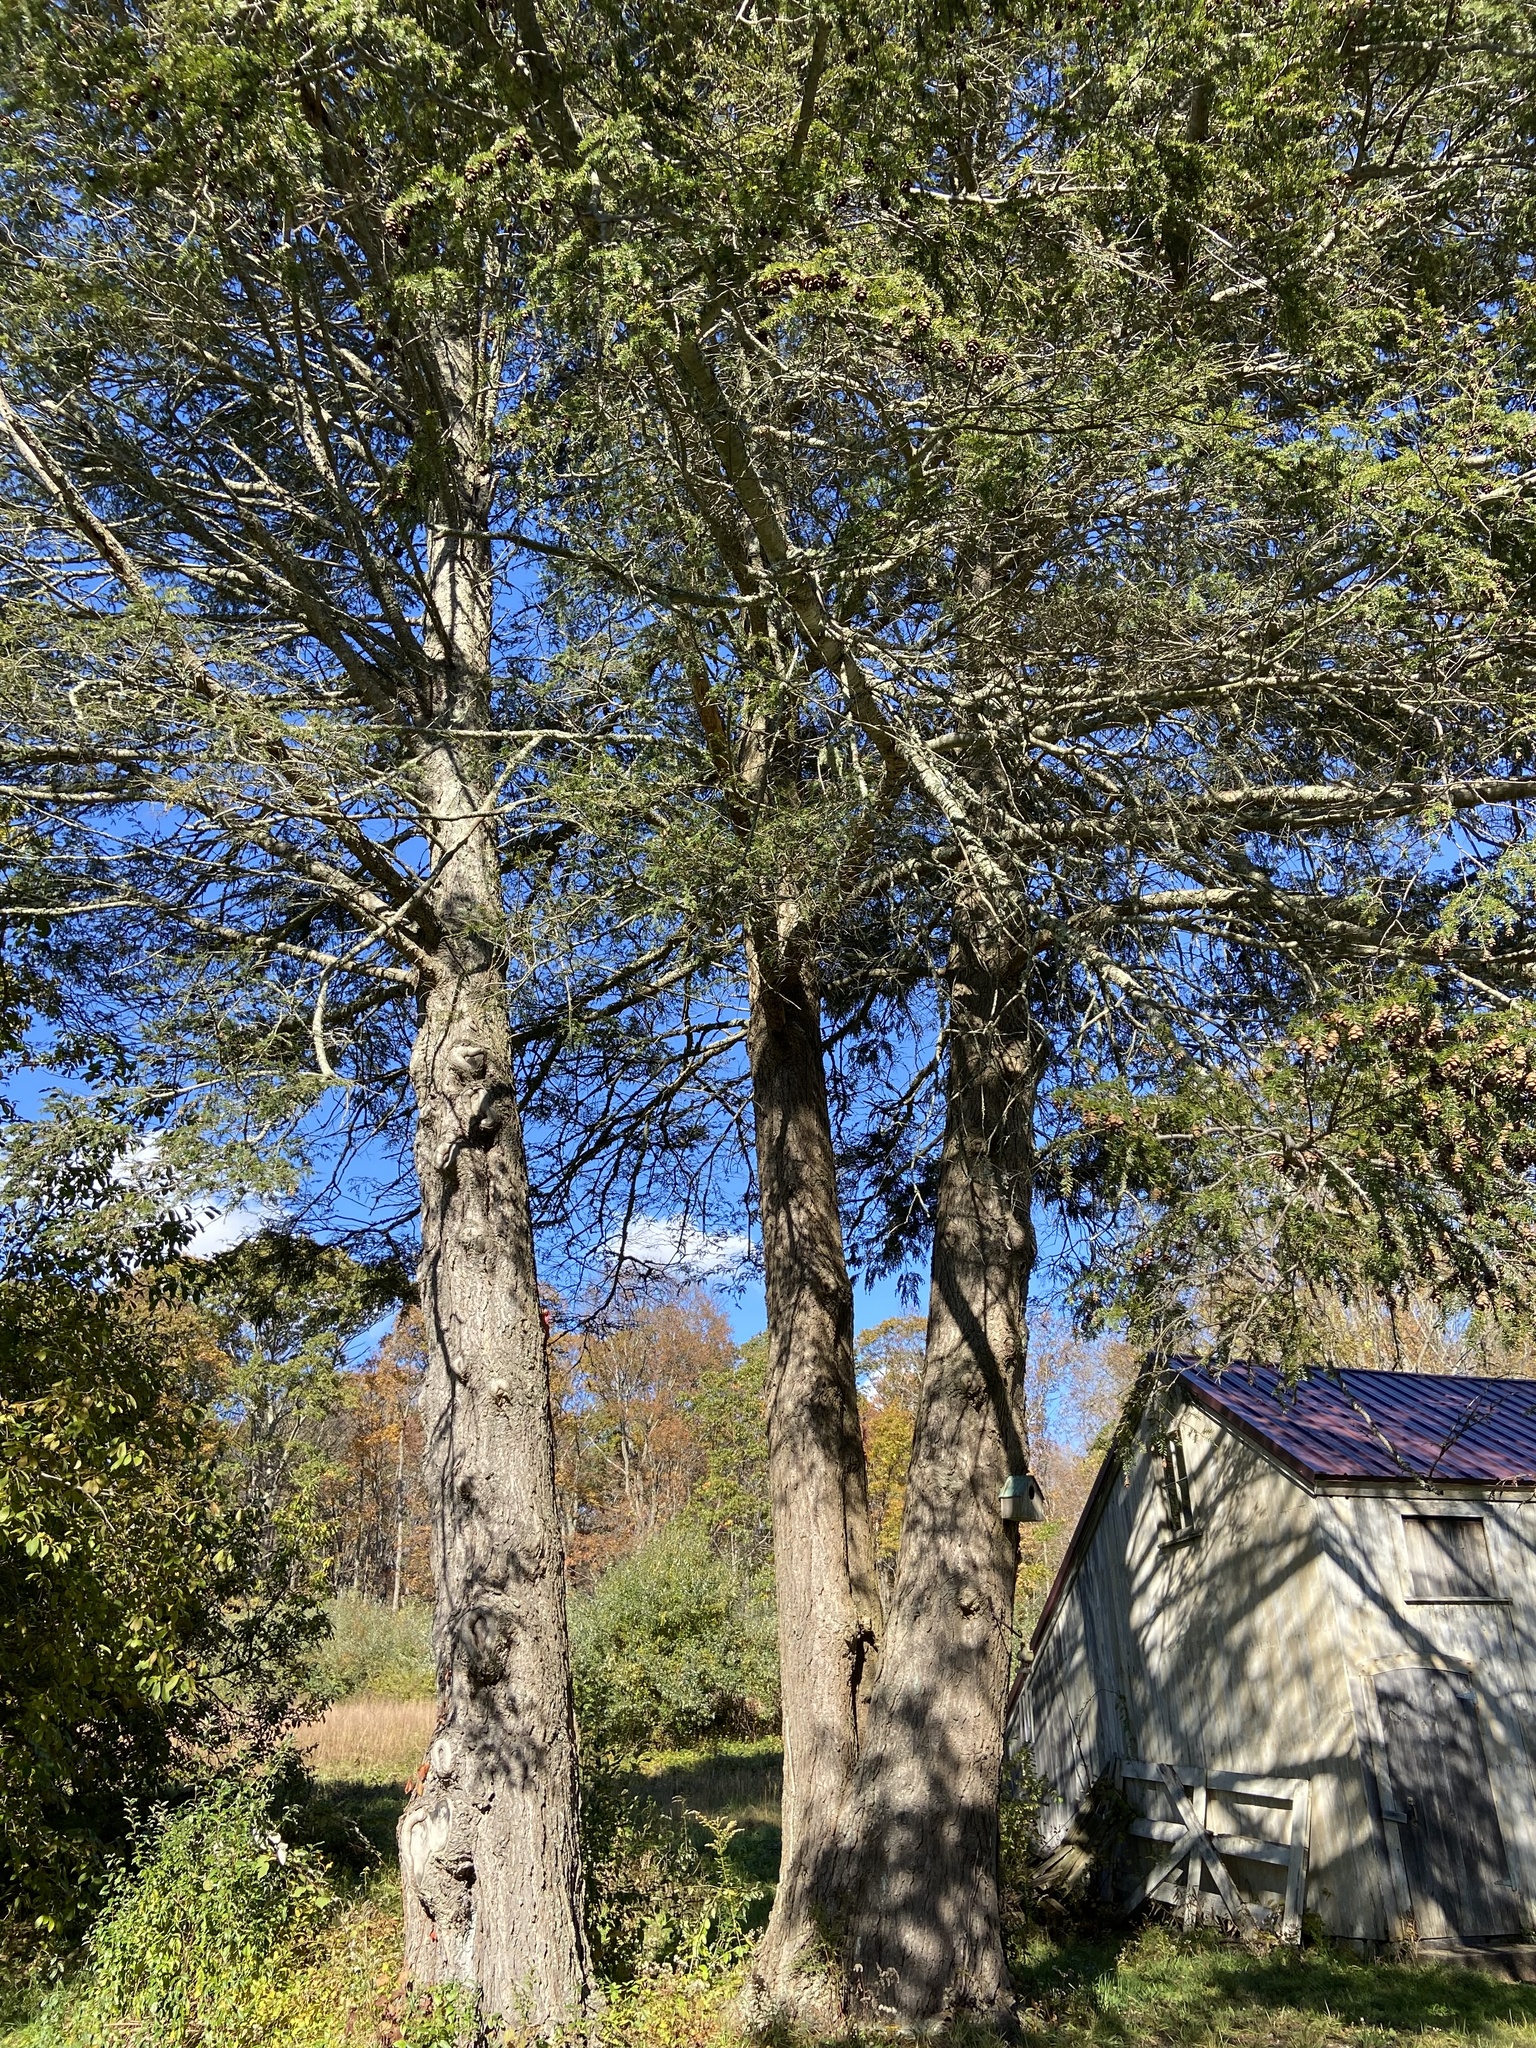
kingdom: Plantae
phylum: Tracheophyta
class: Pinopsida
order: Pinales
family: Pinaceae
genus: Tsuga
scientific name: Tsuga canadensis
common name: Eastern hemlock
